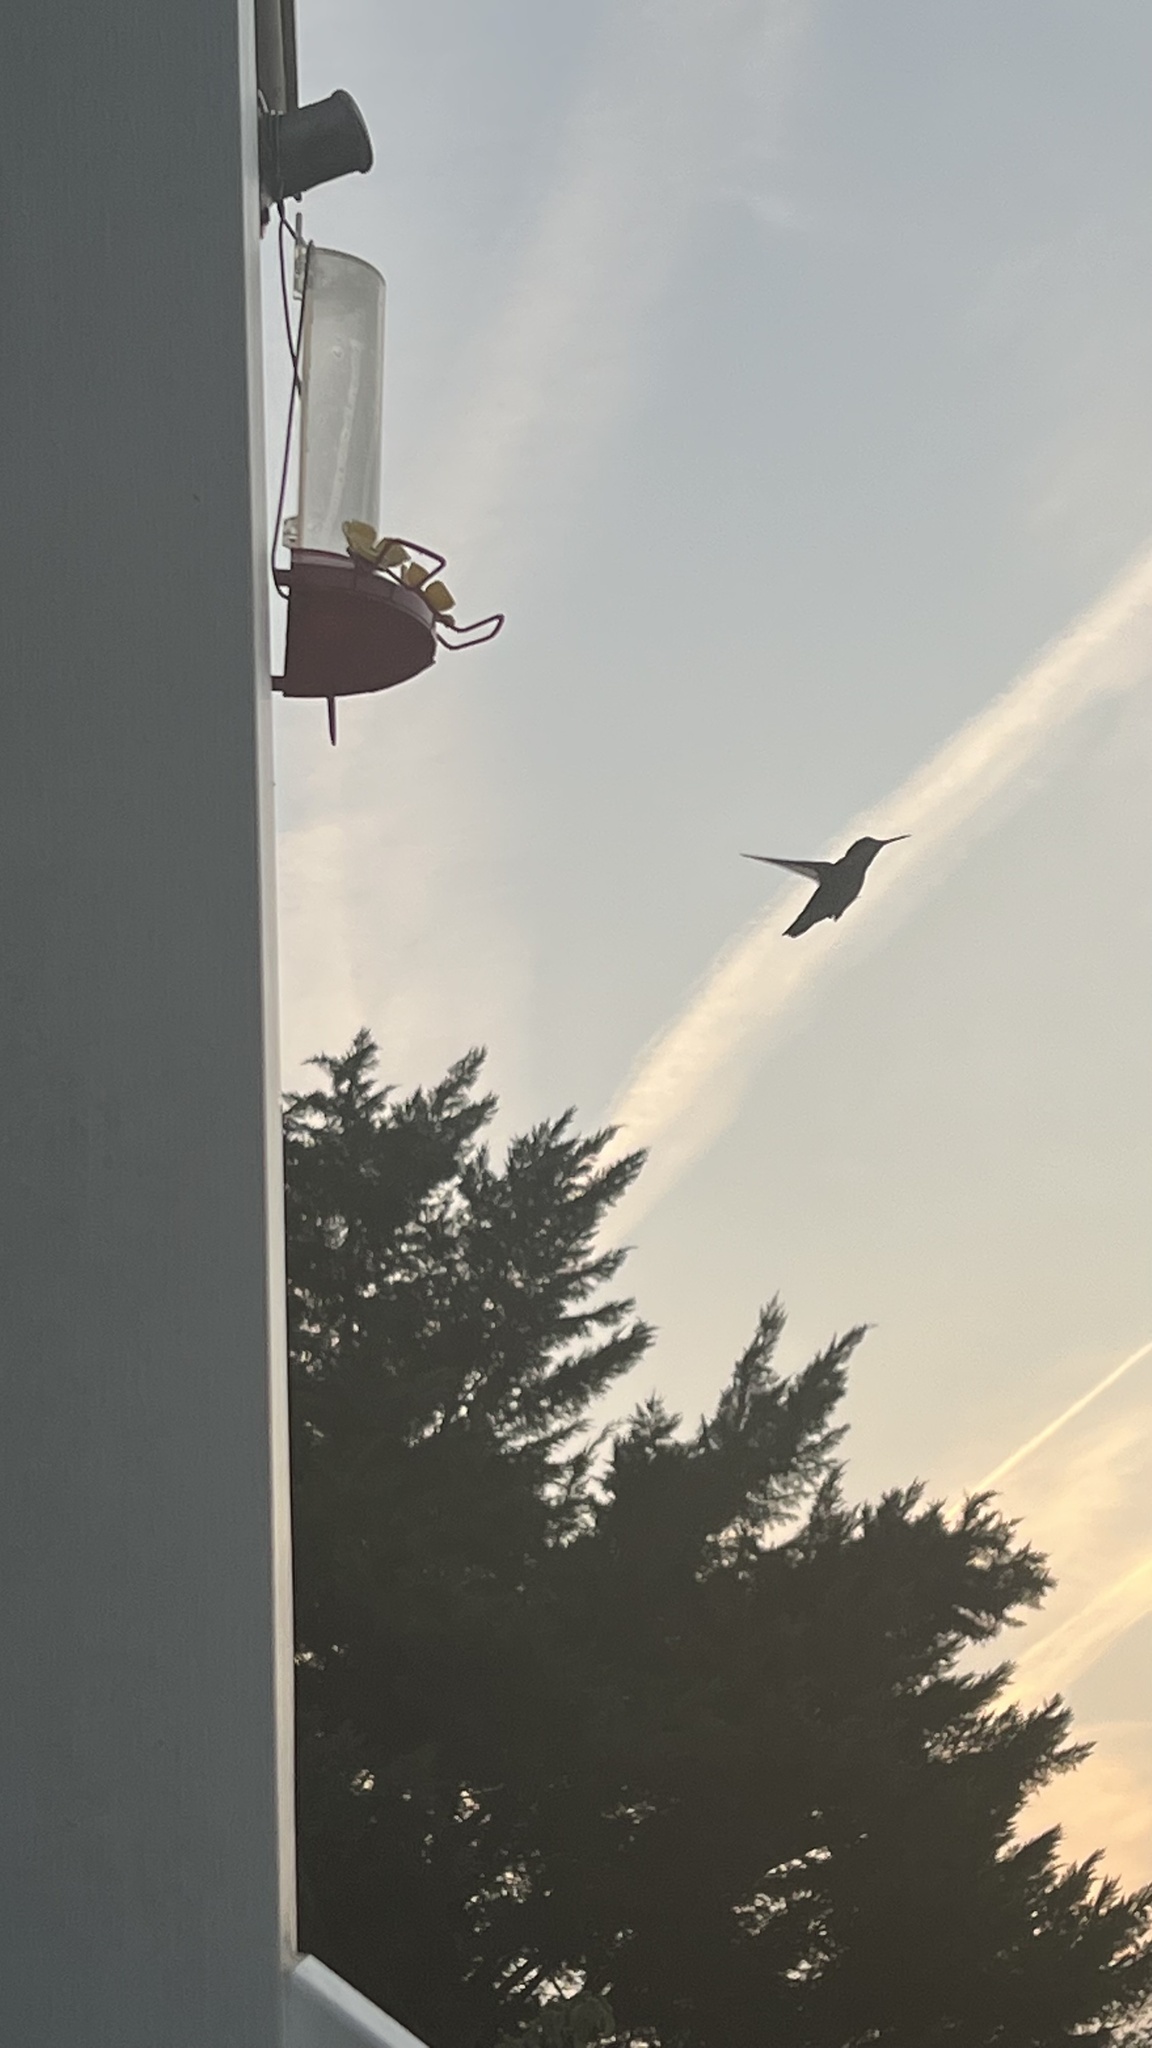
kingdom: Animalia
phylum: Chordata
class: Aves
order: Apodiformes
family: Trochilidae
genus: Archilochus
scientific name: Archilochus colubris
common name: Ruby-throated hummingbird
